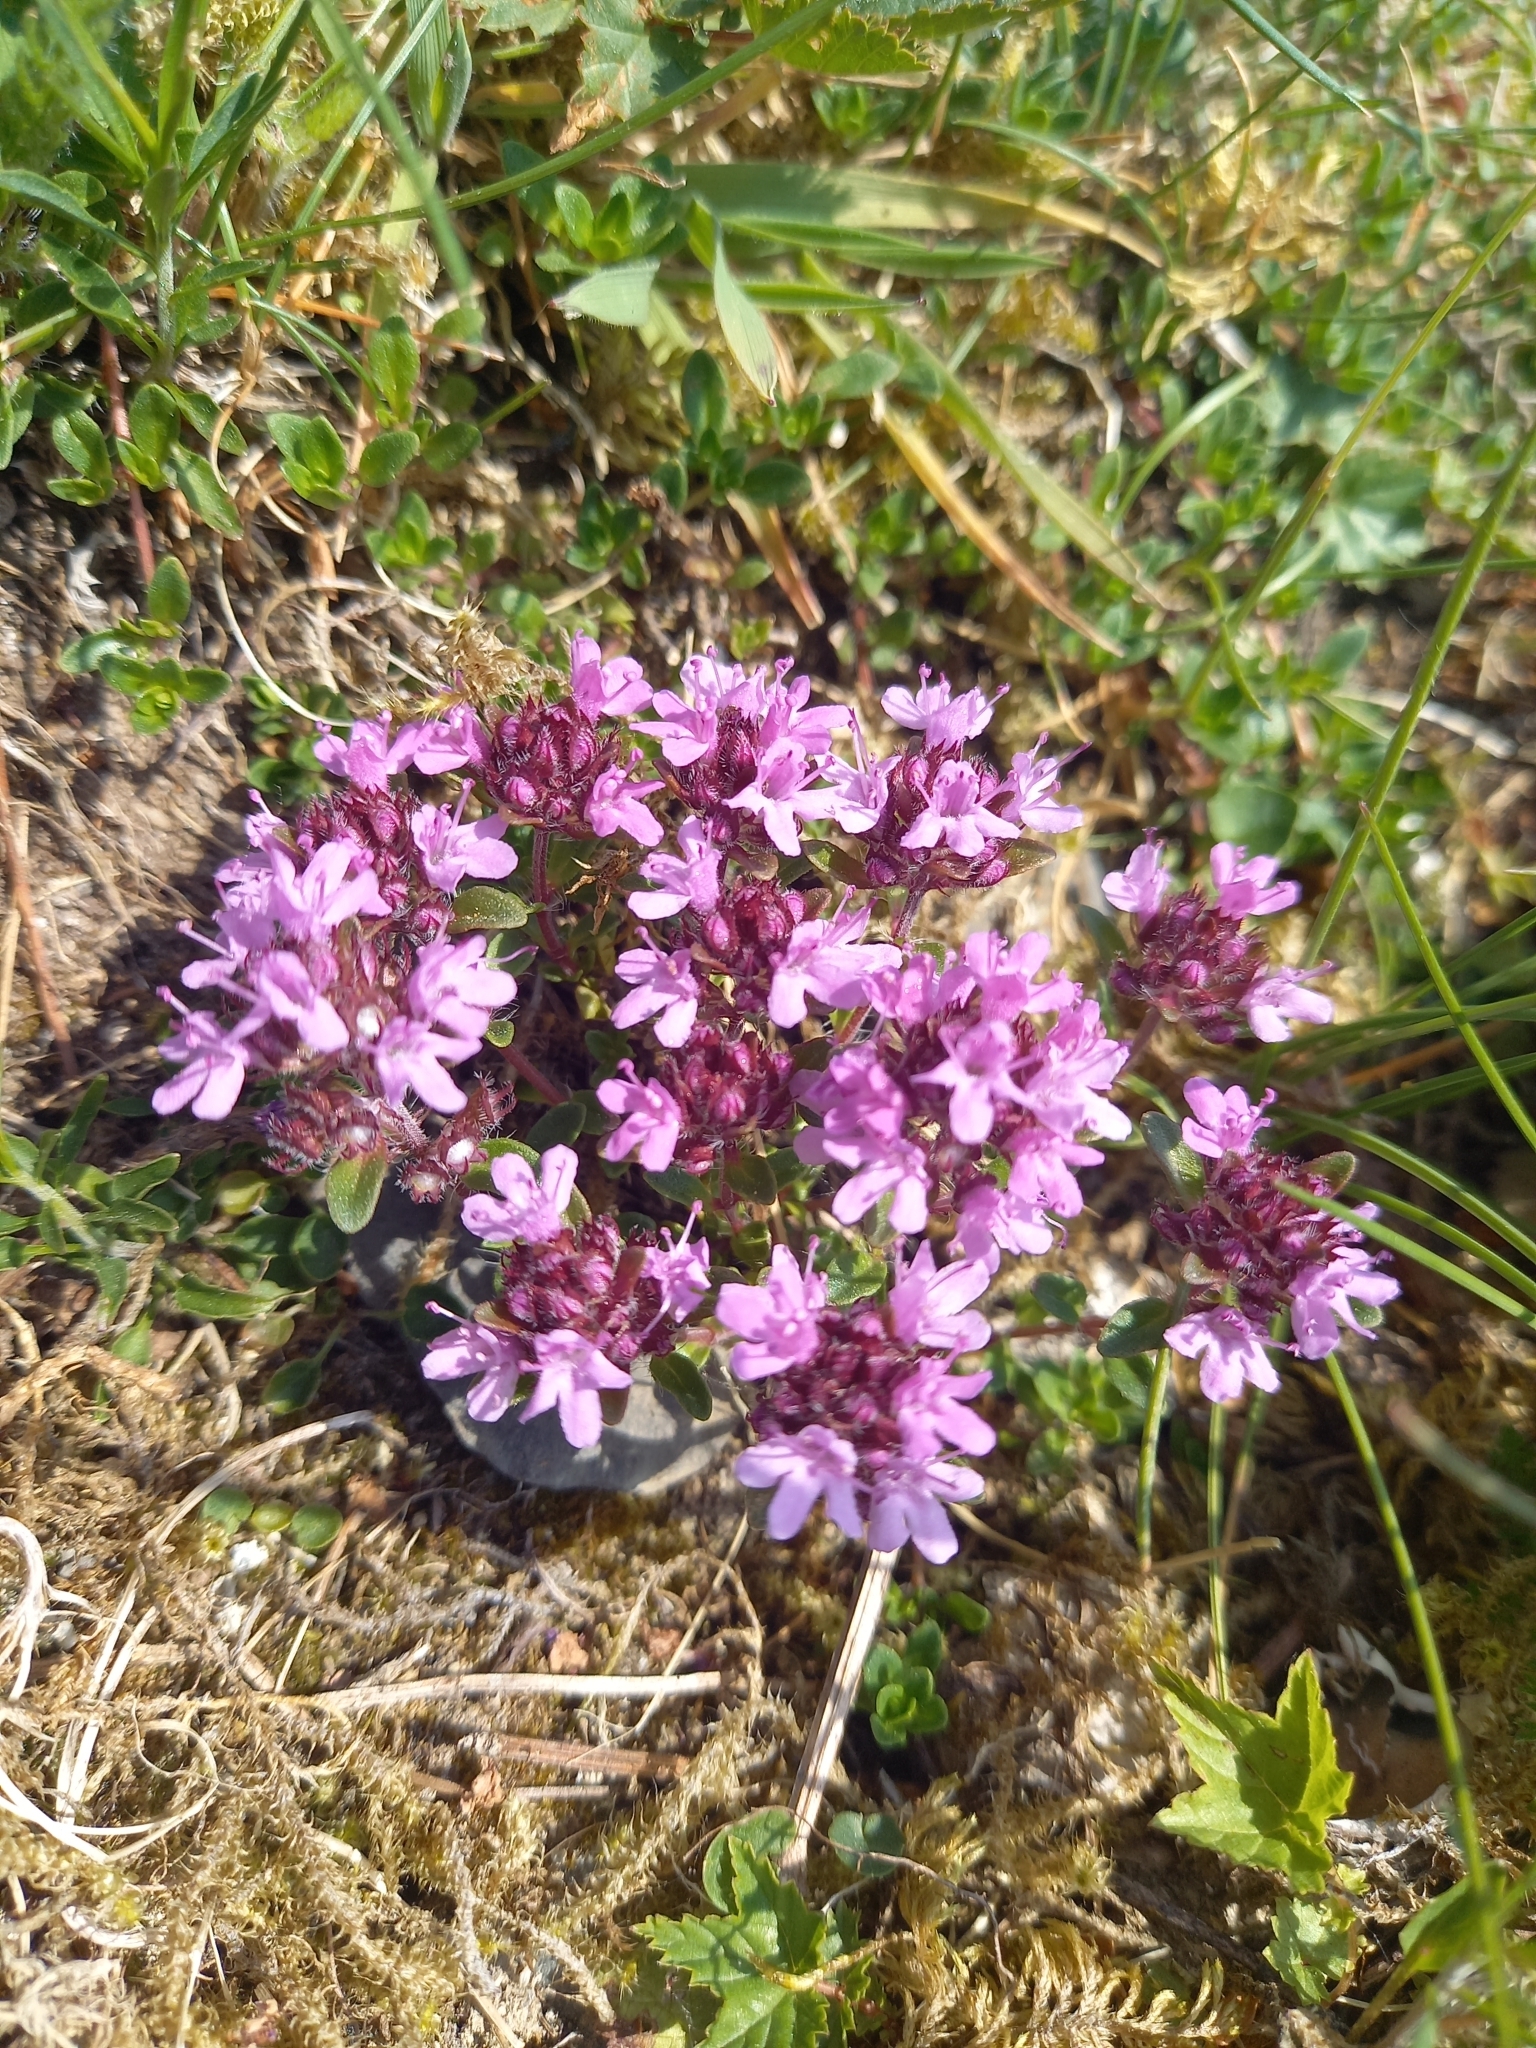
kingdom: Plantae
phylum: Tracheophyta
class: Magnoliopsida
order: Lamiales
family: Lamiaceae
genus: Thymus
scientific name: Thymus praecox
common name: Wild thyme
